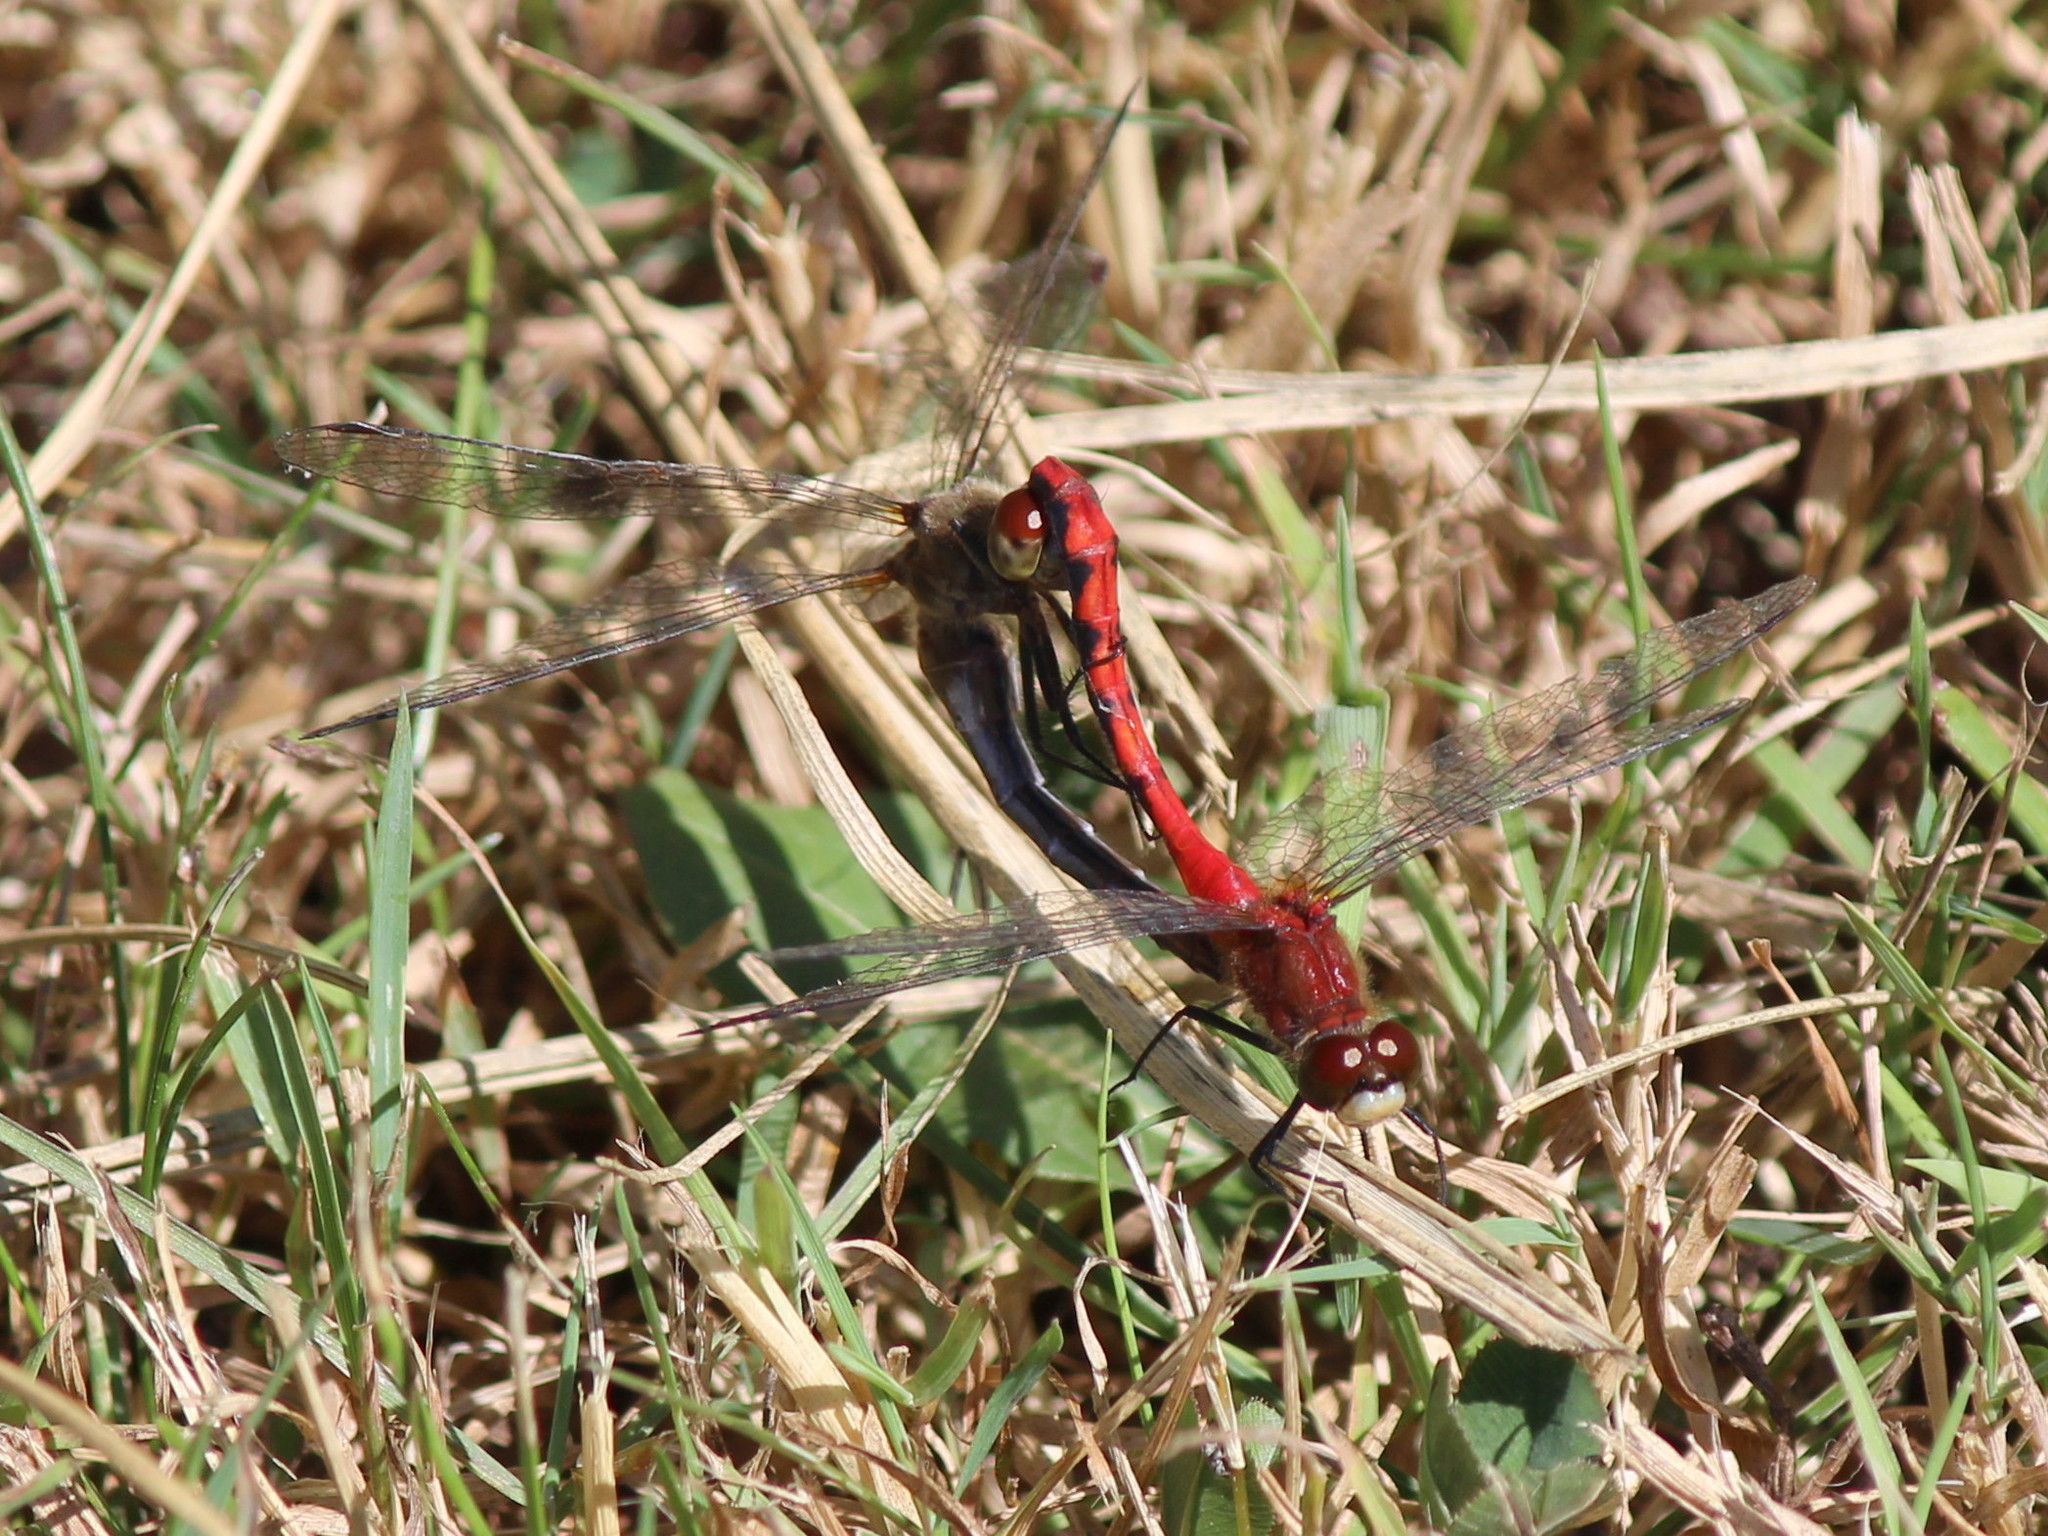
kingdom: Animalia
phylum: Arthropoda
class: Insecta
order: Odonata
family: Libellulidae
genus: Sympetrum
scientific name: Sympetrum obtrusum
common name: White-faced meadowhawk
